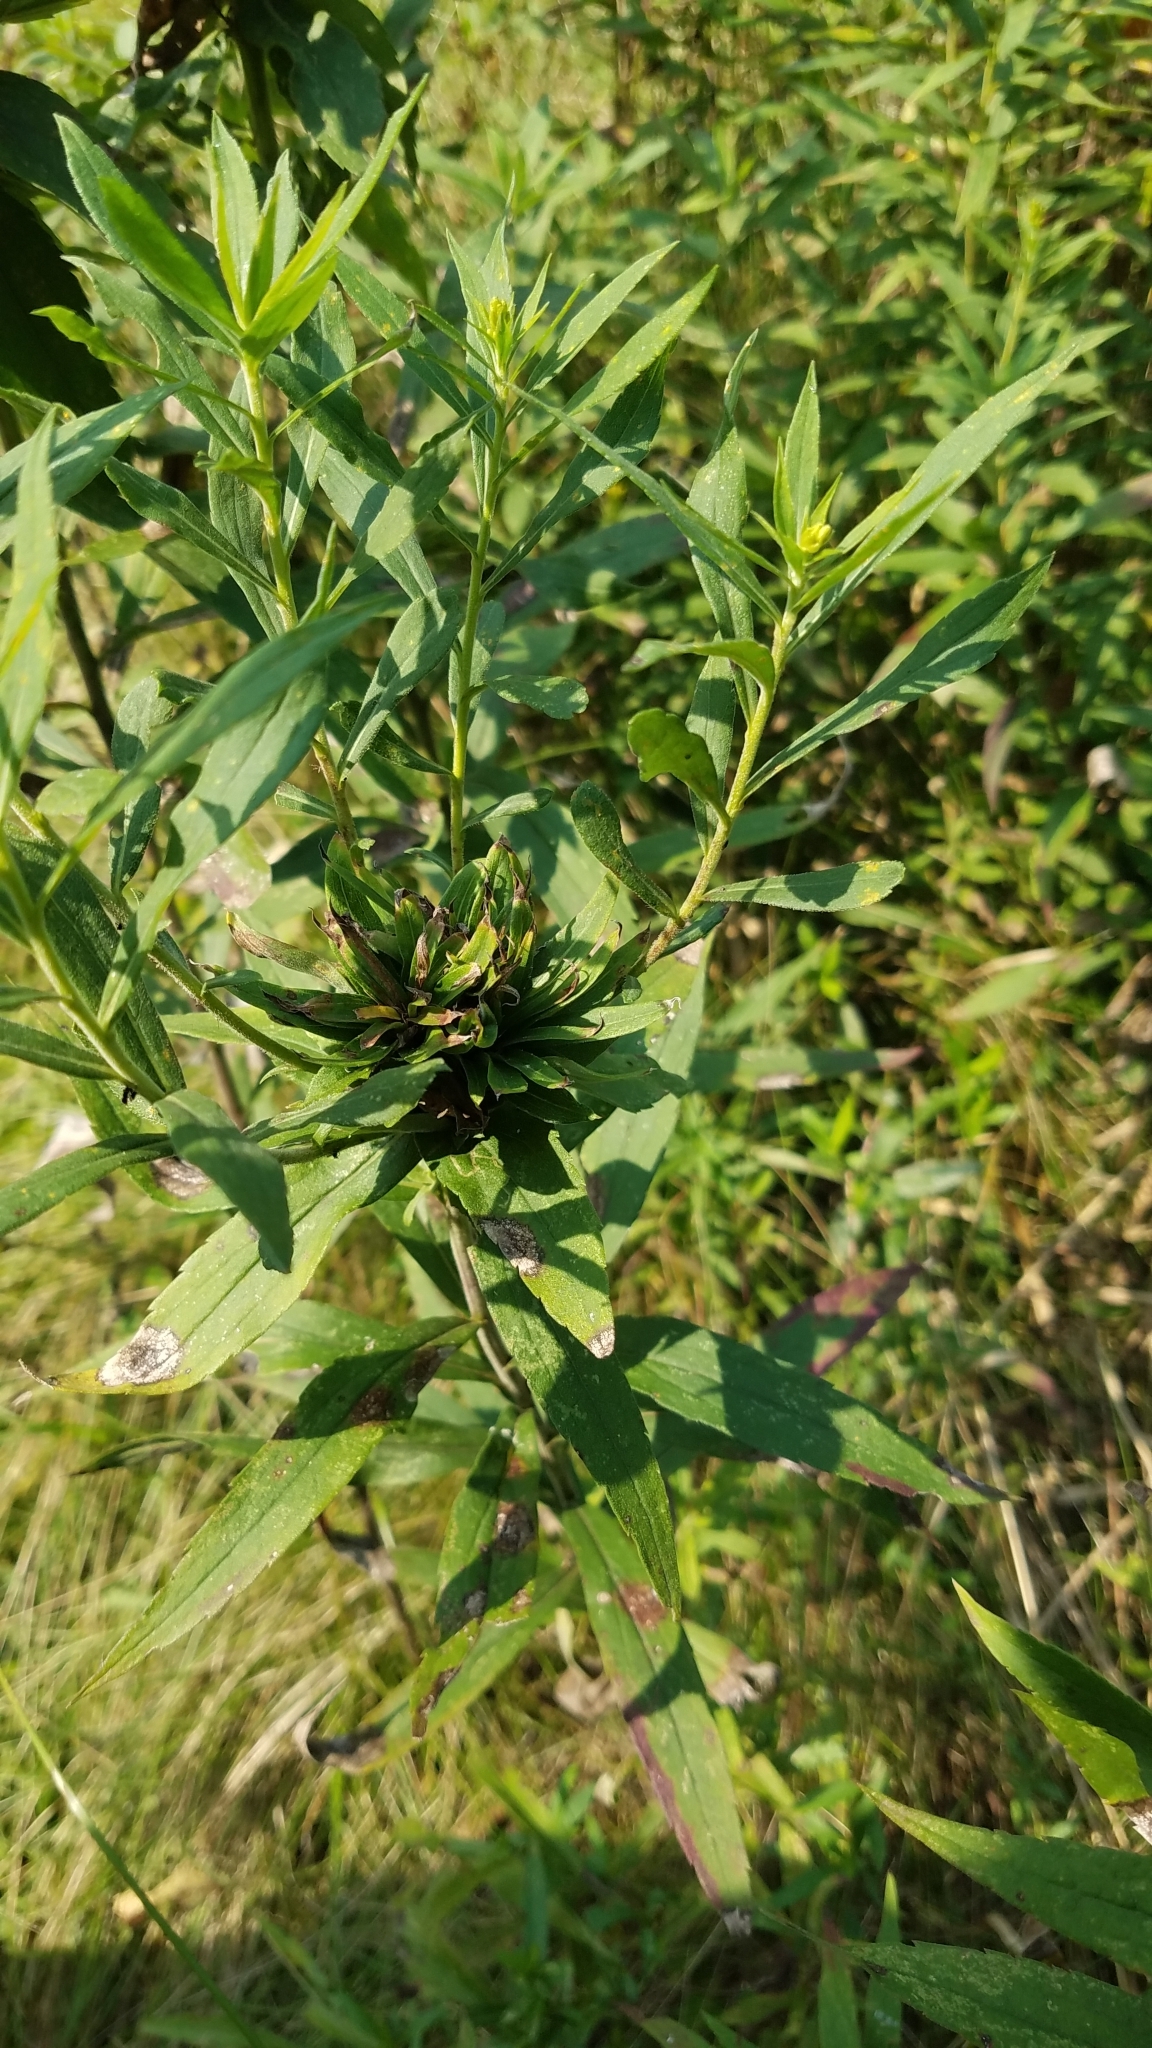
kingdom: Animalia
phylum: Arthropoda
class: Insecta
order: Diptera
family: Cecidomyiidae
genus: Rhopalomyia
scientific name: Rhopalomyia solidaginis
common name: Goldenrod bunch gall midge
